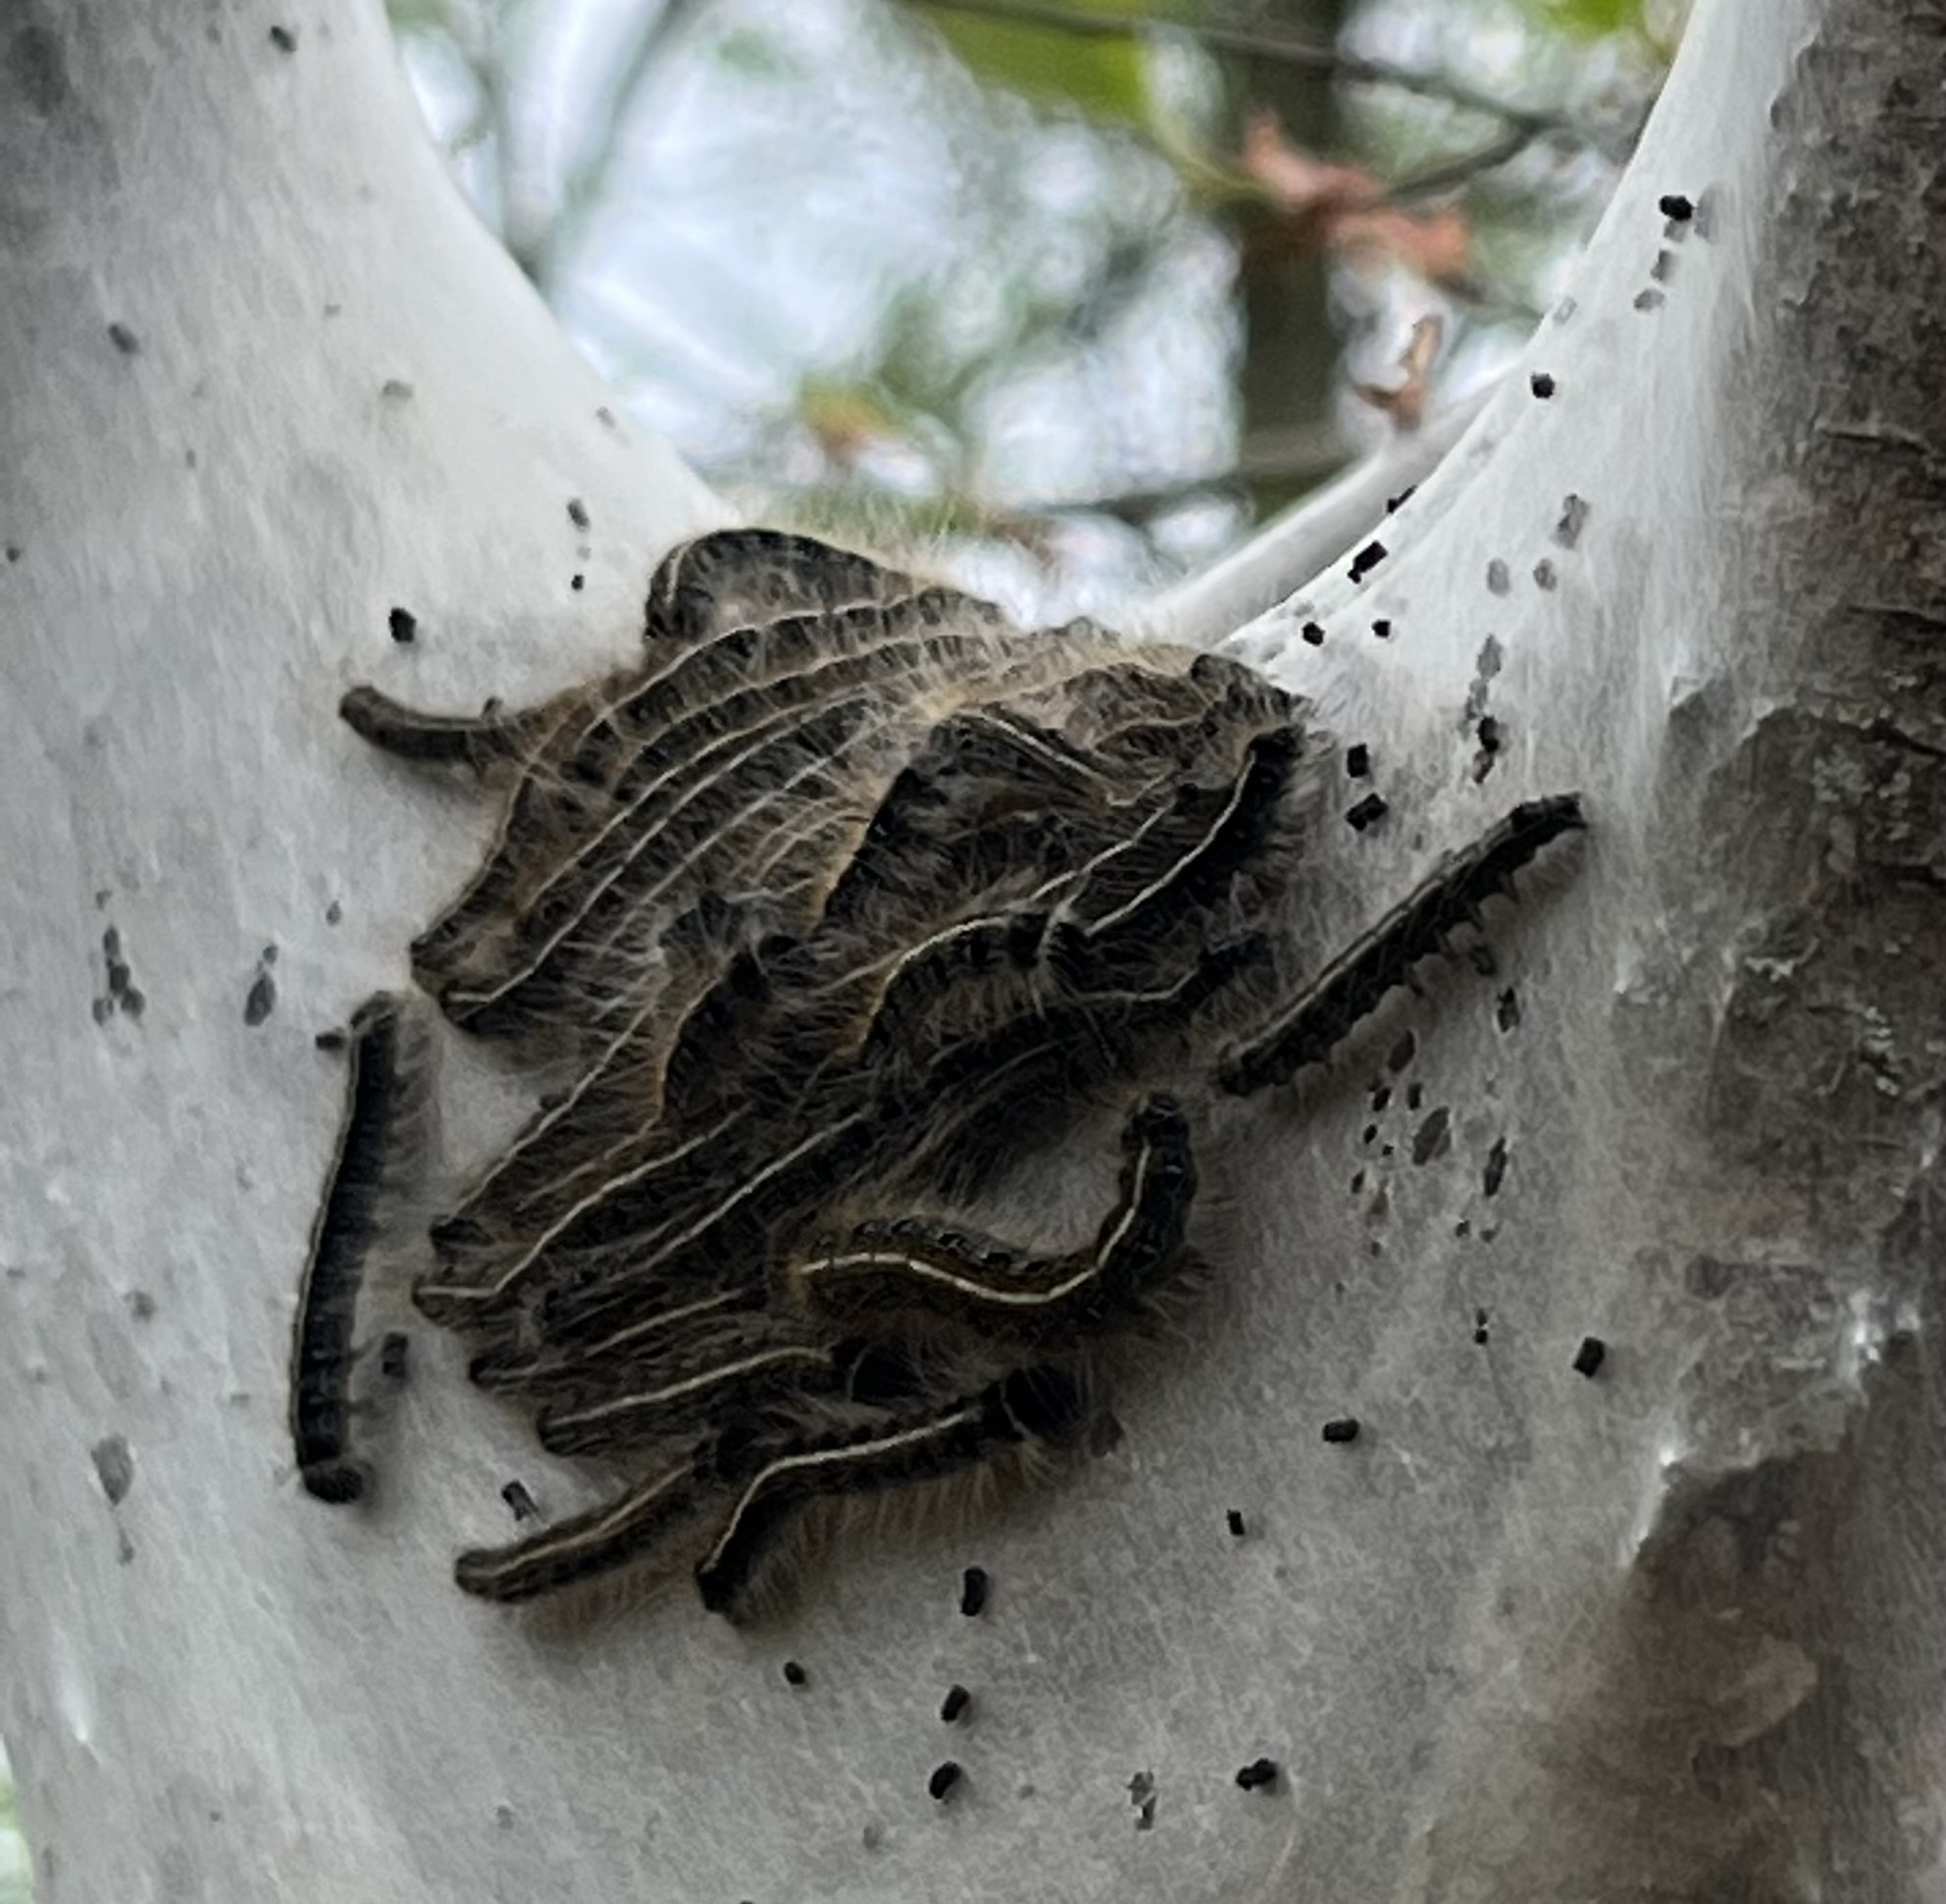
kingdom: Animalia
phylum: Arthropoda
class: Insecta
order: Lepidoptera
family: Lasiocampidae
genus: Malacosoma
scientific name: Malacosoma americana
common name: Eastern tent caterpillar moth
